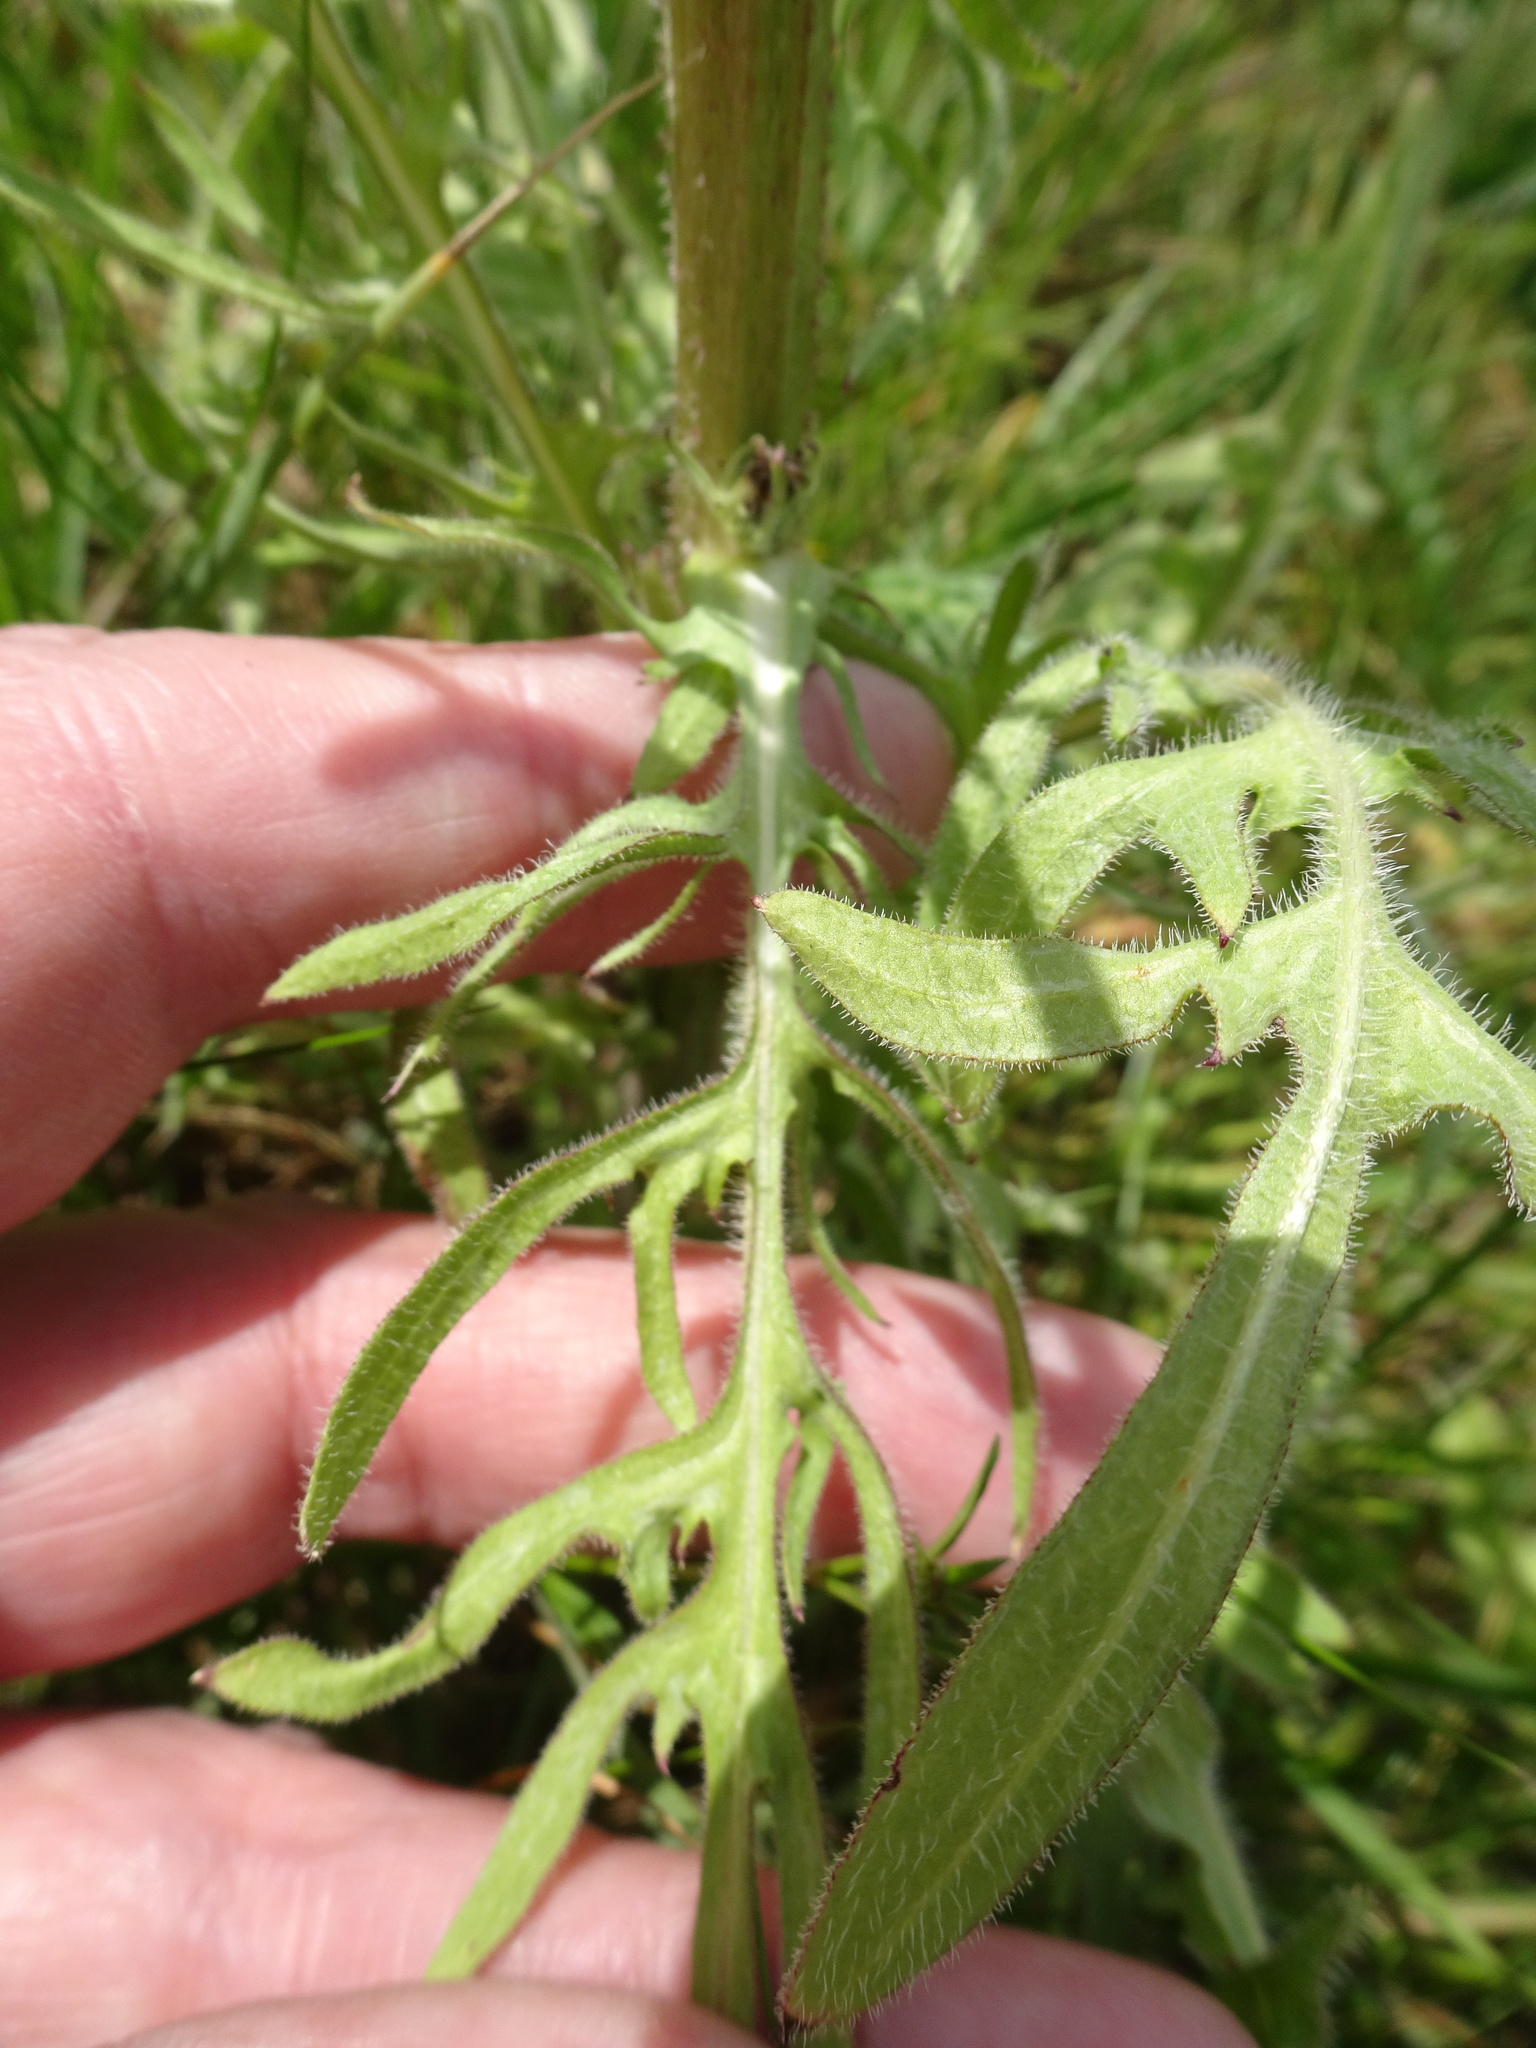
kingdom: Plantae
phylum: Tracheophyta
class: Magnoliopsida
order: Asterales
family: Asteraceae
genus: Crepis
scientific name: Crepis biennis
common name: Rough hawk's-beard
